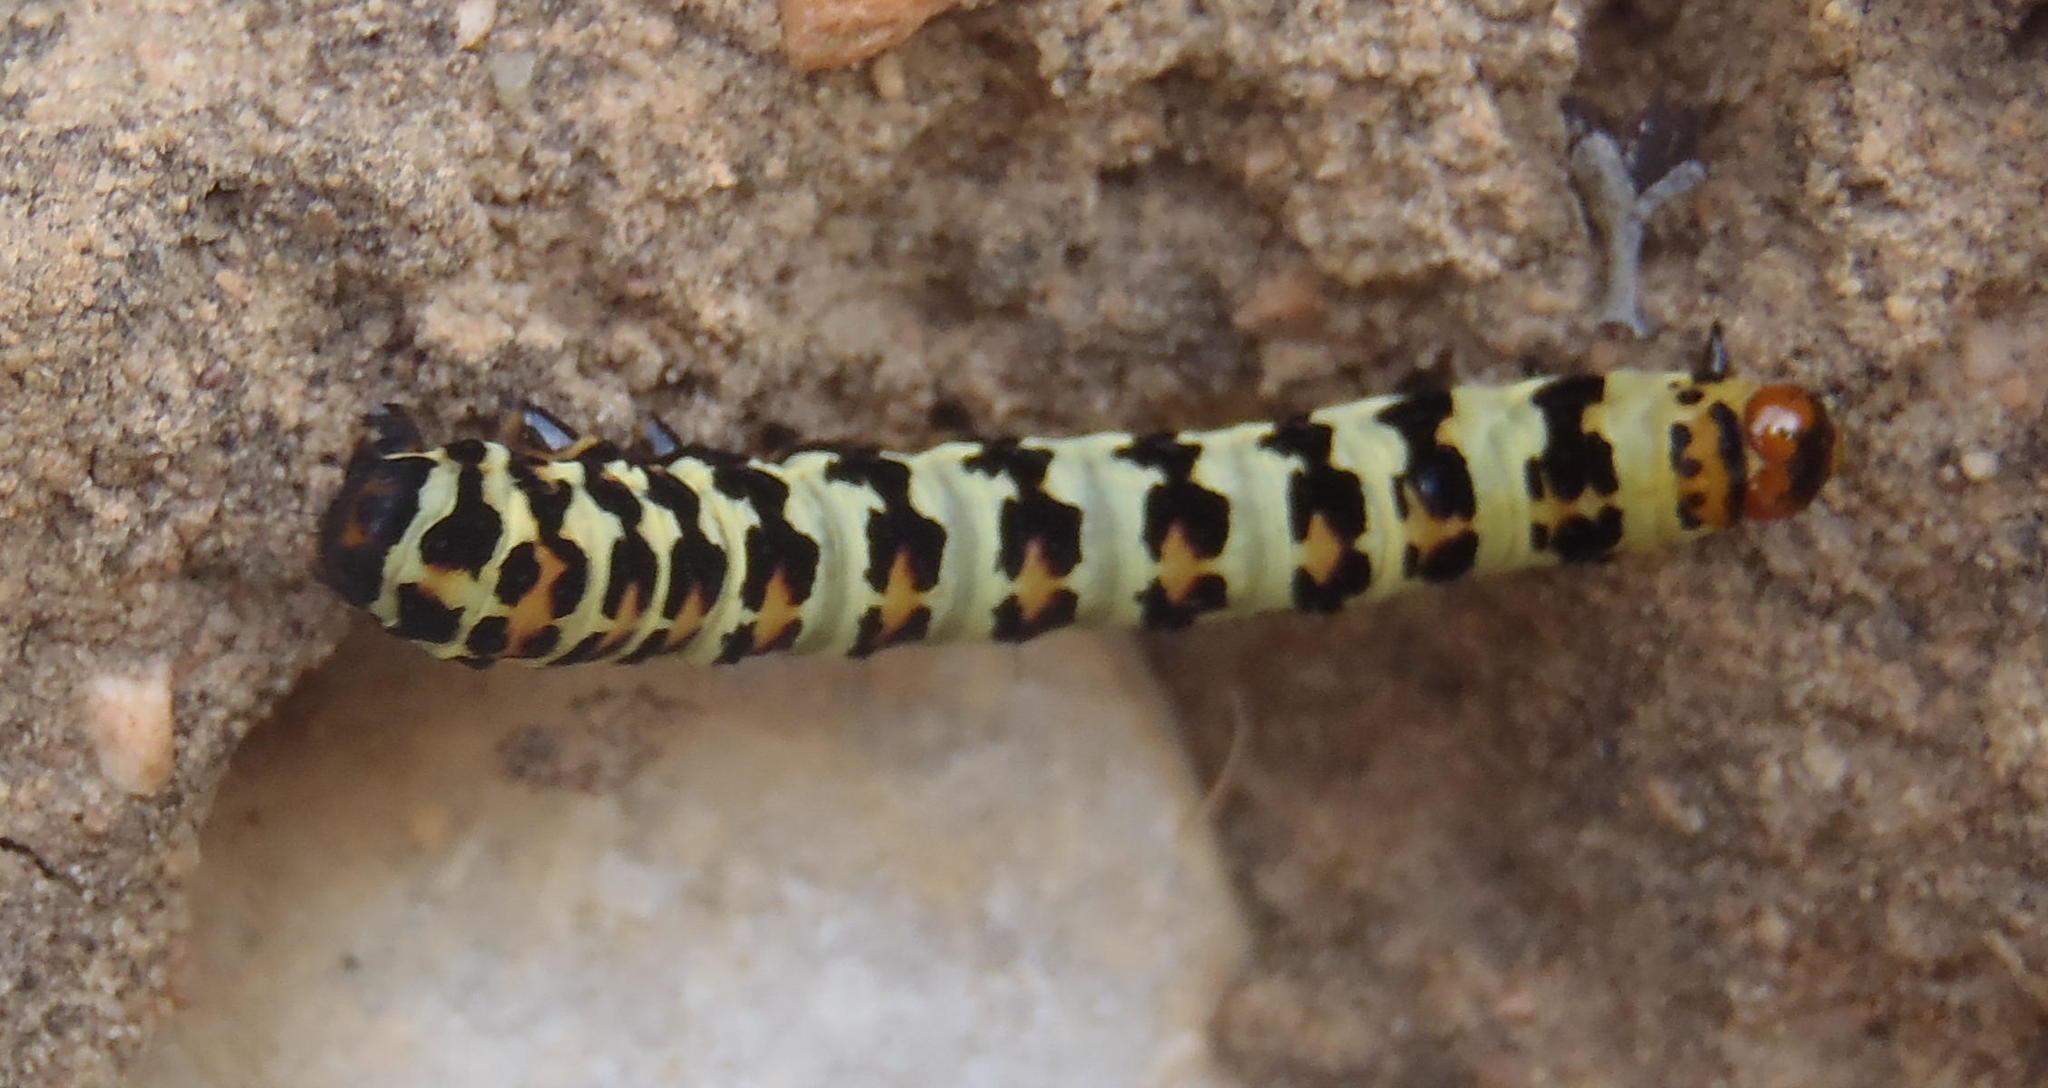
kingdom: Animalia
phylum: Arthropoda
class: Insecta
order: Lepidoptera
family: Noctuidae
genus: Diaphone
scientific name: Diaphone eumela
